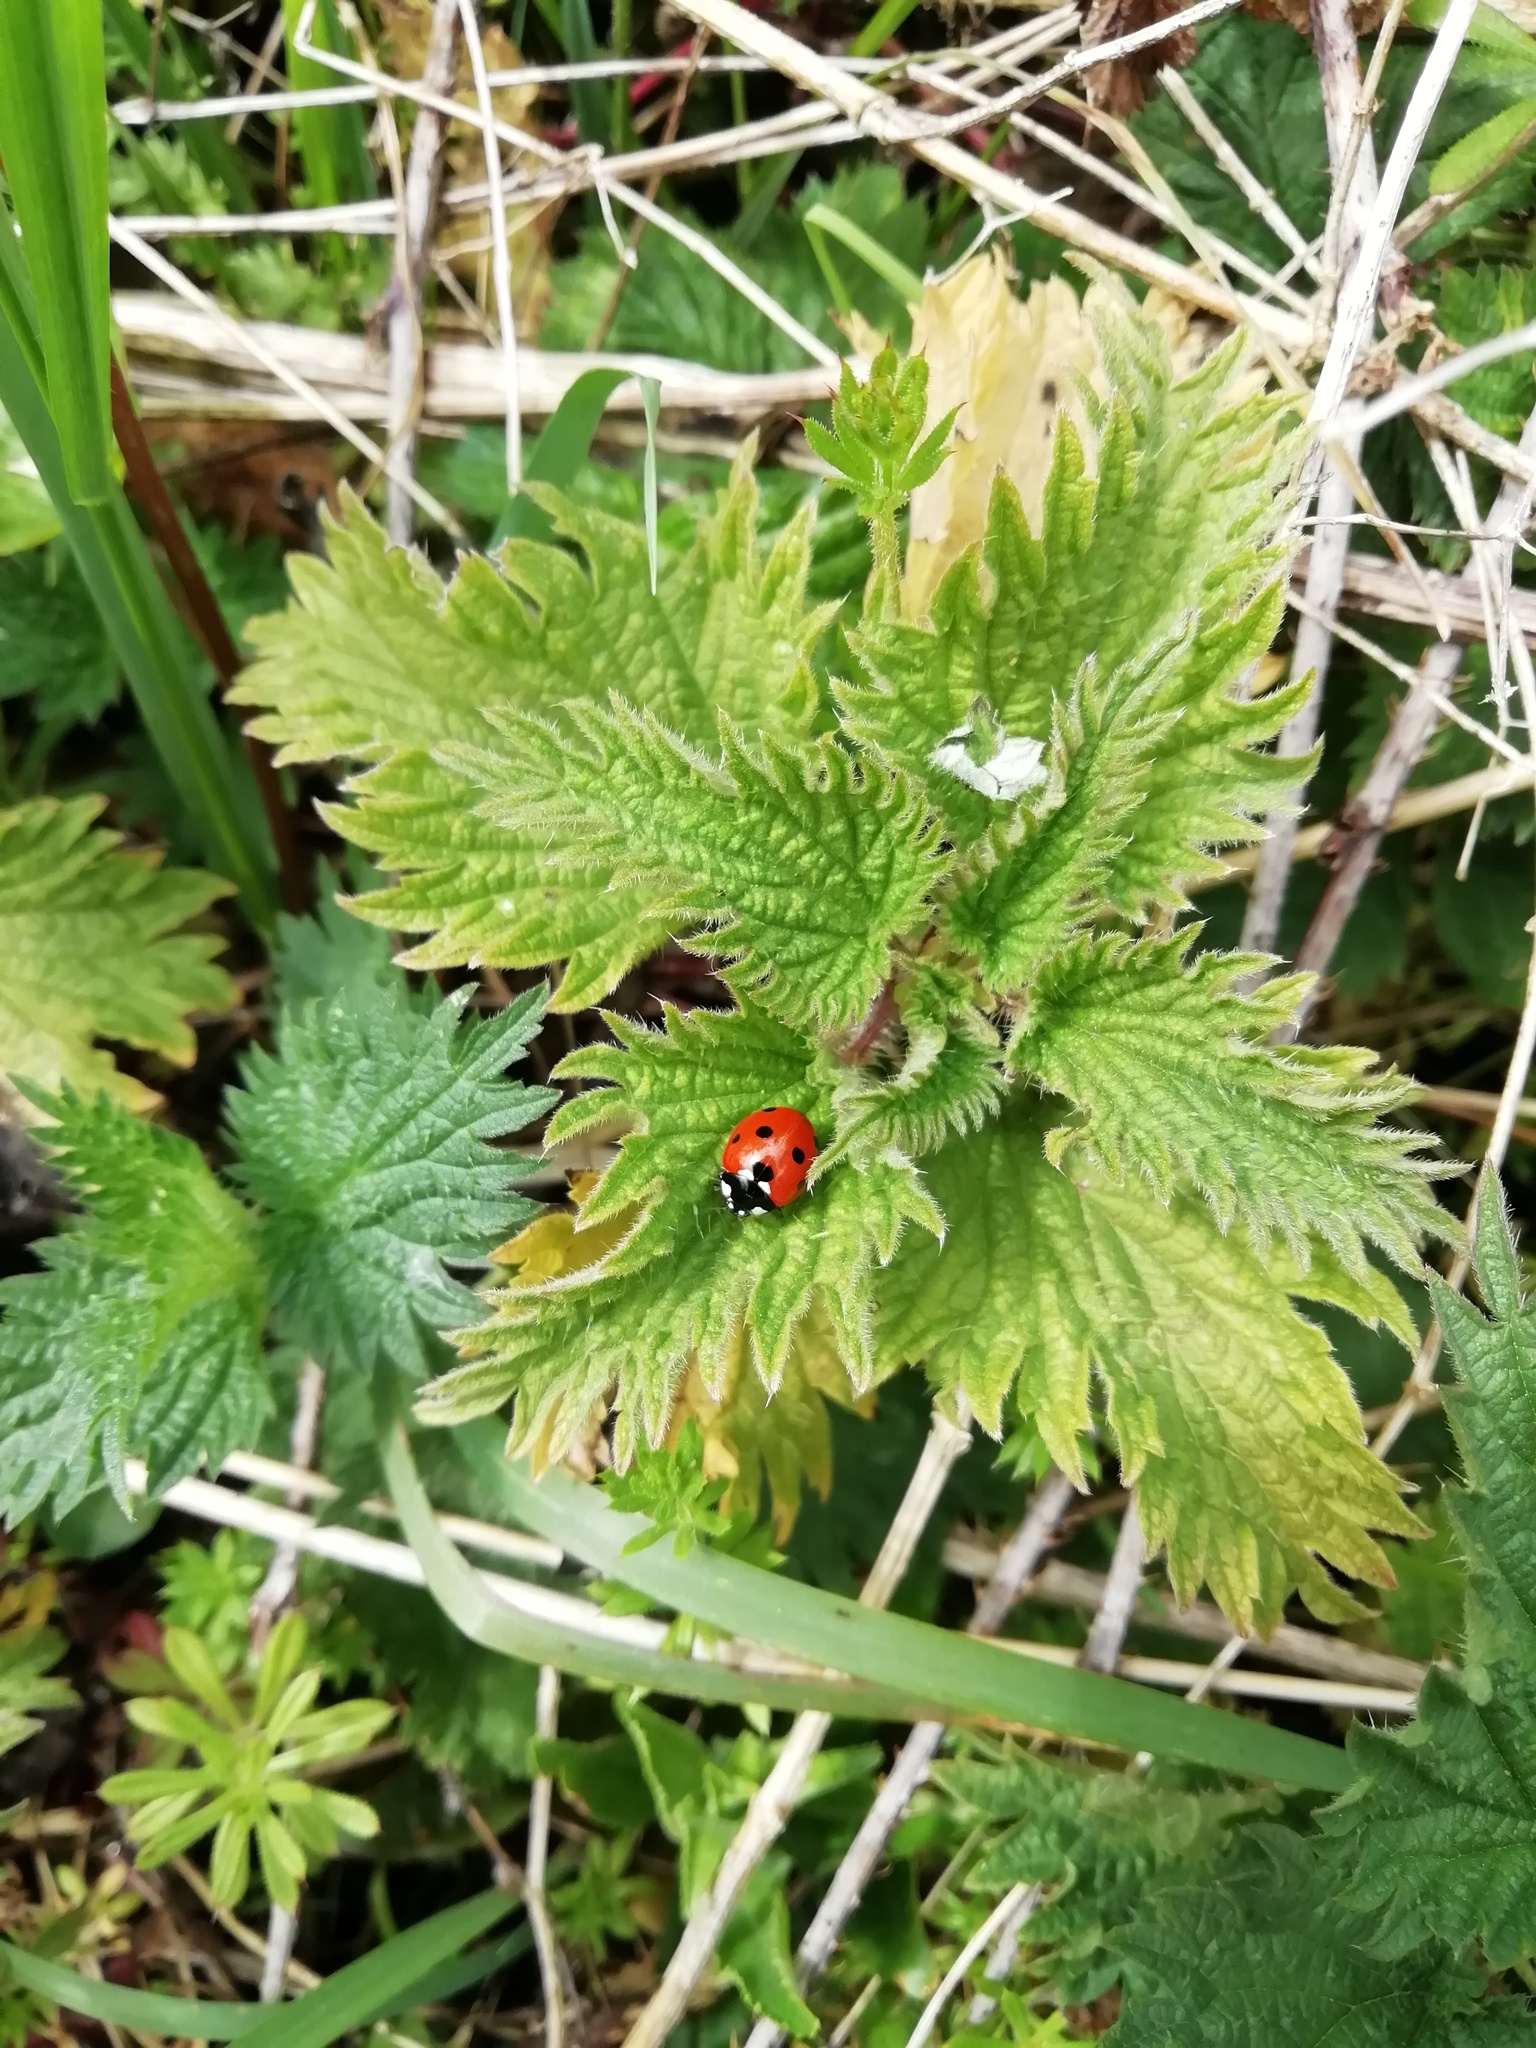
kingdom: Animalia
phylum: Arthropoda
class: Insecta
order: Coleoptera
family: Coccinellidae
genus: Coccinella
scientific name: Coccinella septempunctata
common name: Sevenspotted lady beetle
